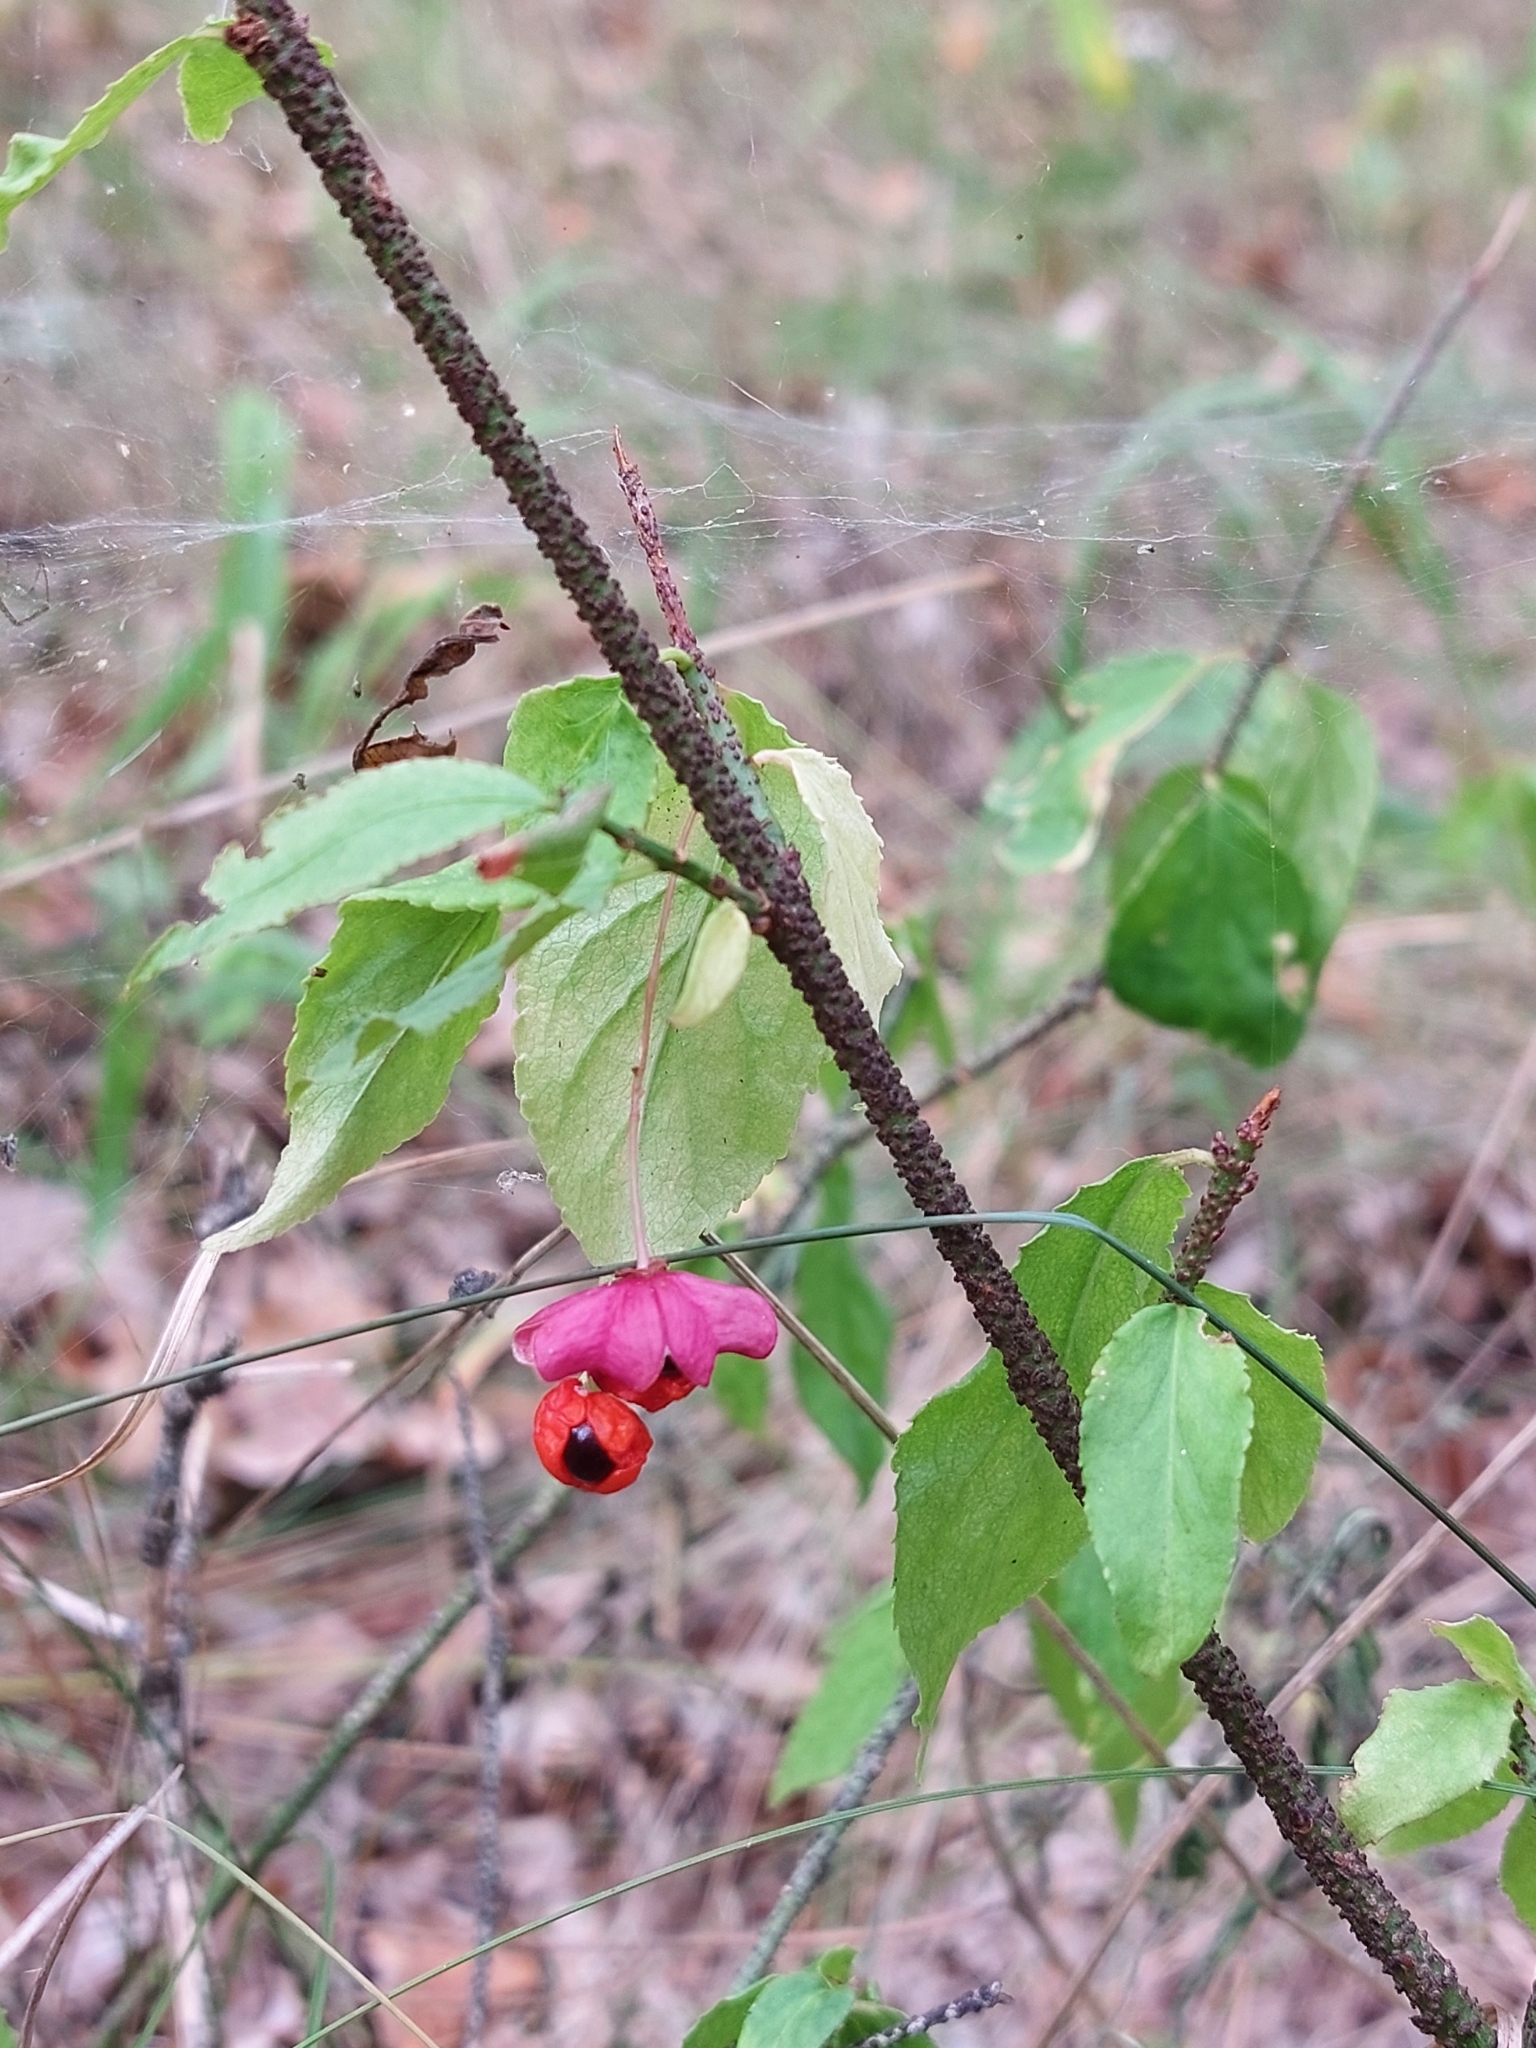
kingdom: Plantae
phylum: Tracheophyta
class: Magnoliopsida
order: Celastrales
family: Celastraceae
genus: Euonymus
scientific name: Euonymus verrucosus
